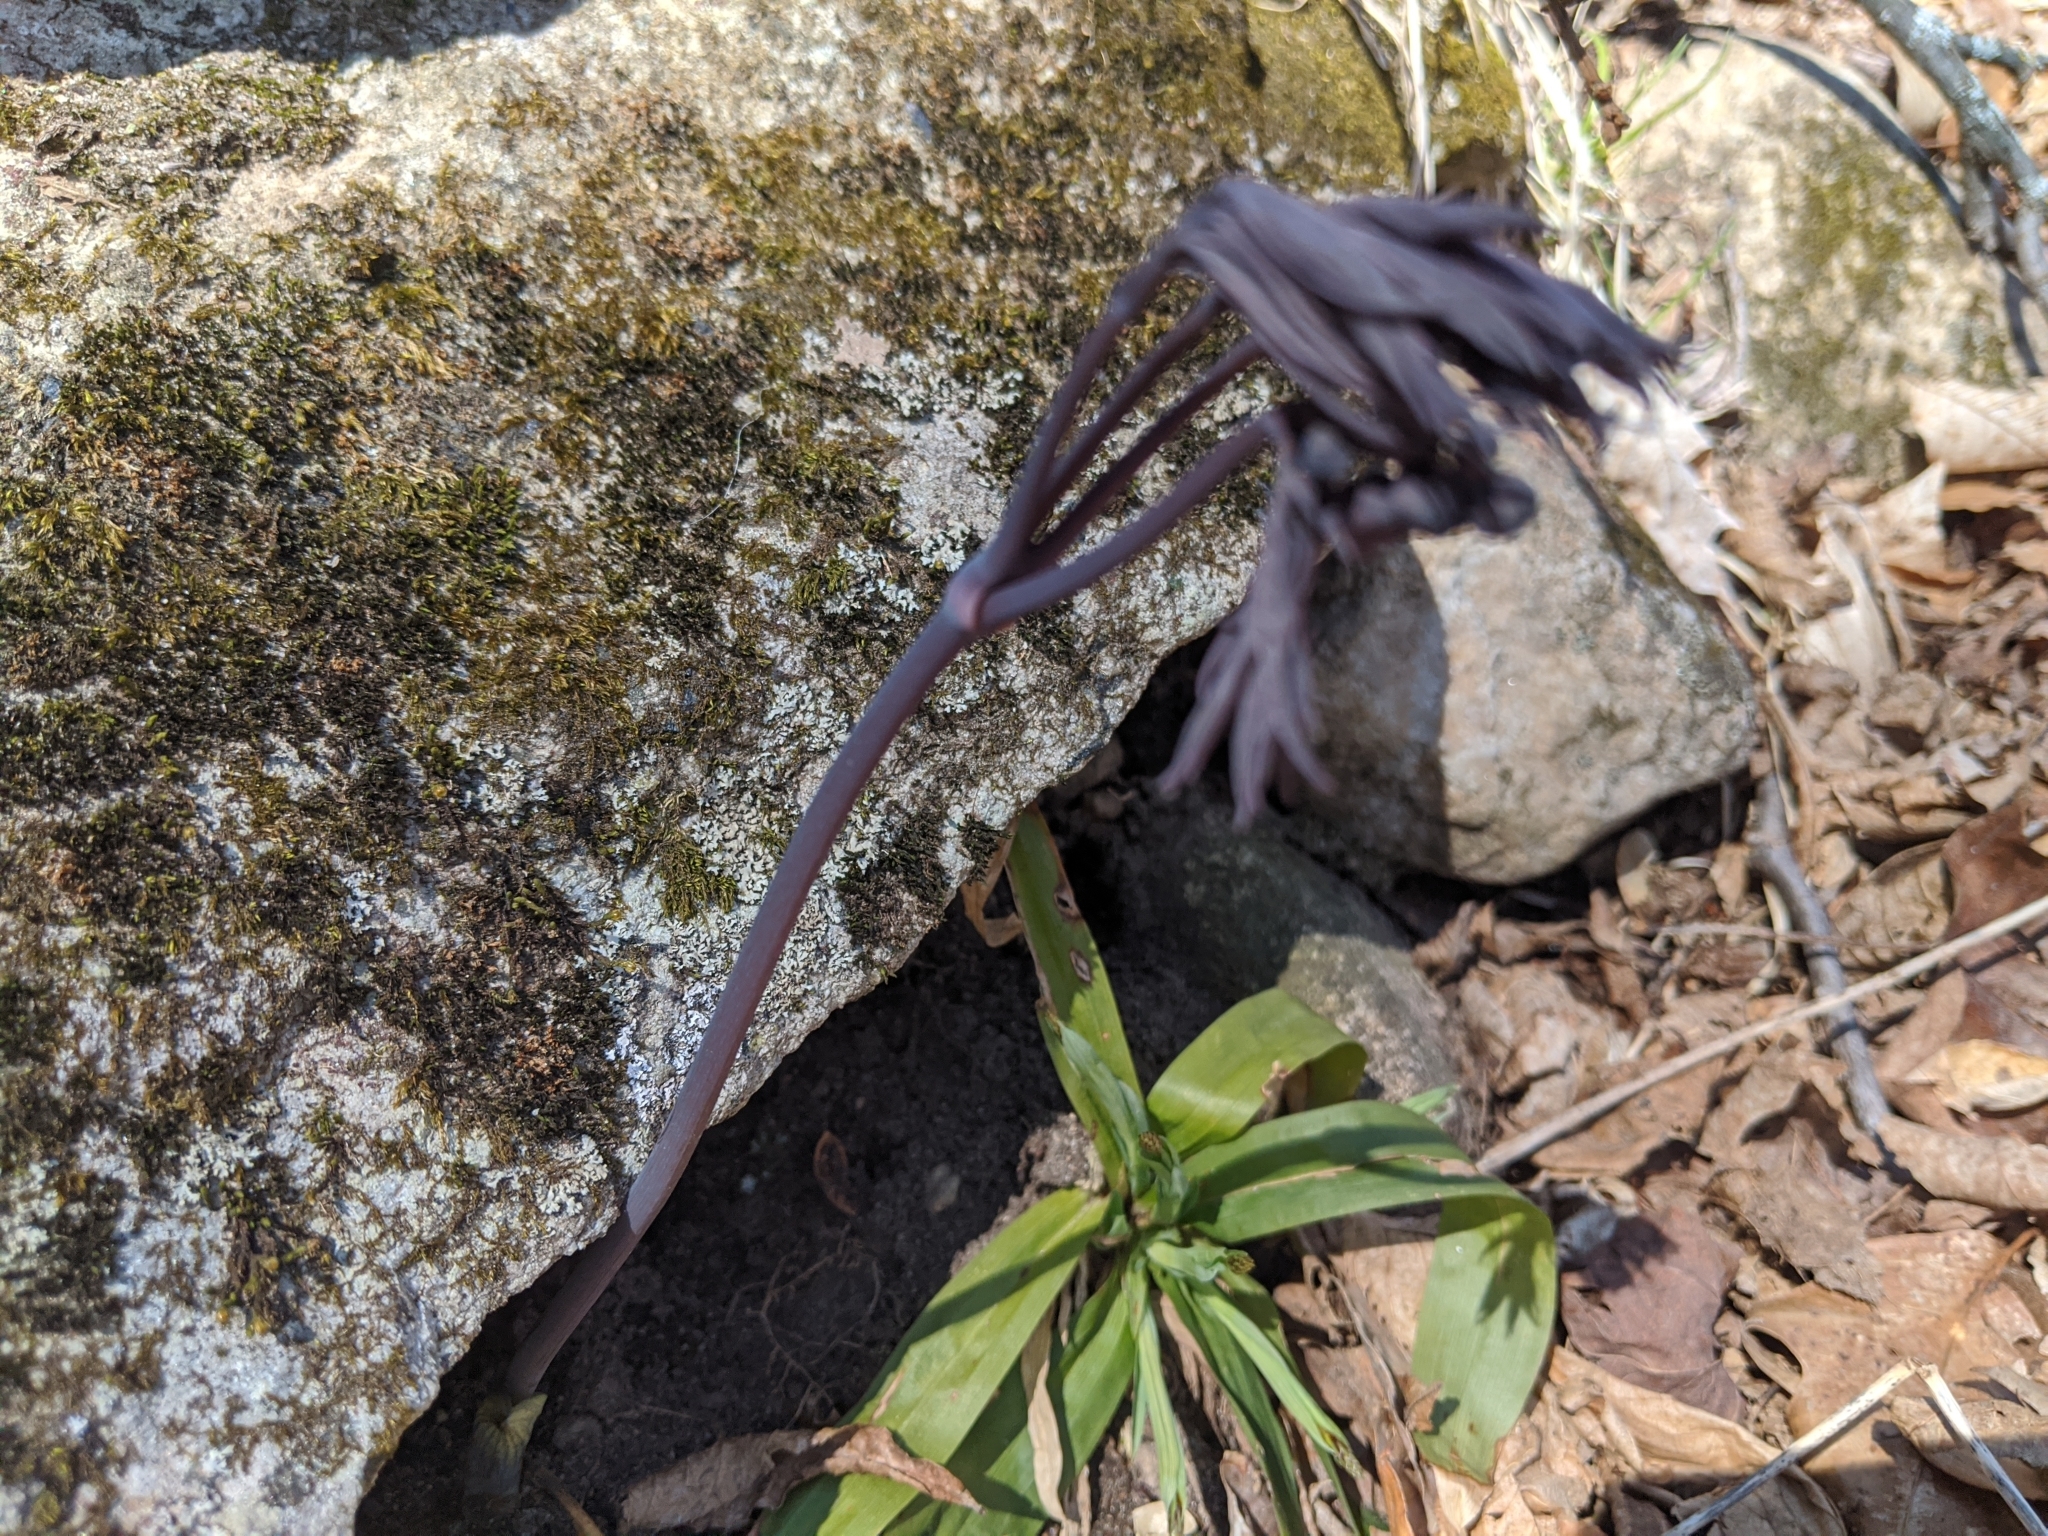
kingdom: Plantae
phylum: Tracheophyta
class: Magnoliopsida
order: Ranunculales
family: Berberidaceae
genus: Caulophyllum
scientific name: Caulophyllum giganteum
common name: Blue cohosh
